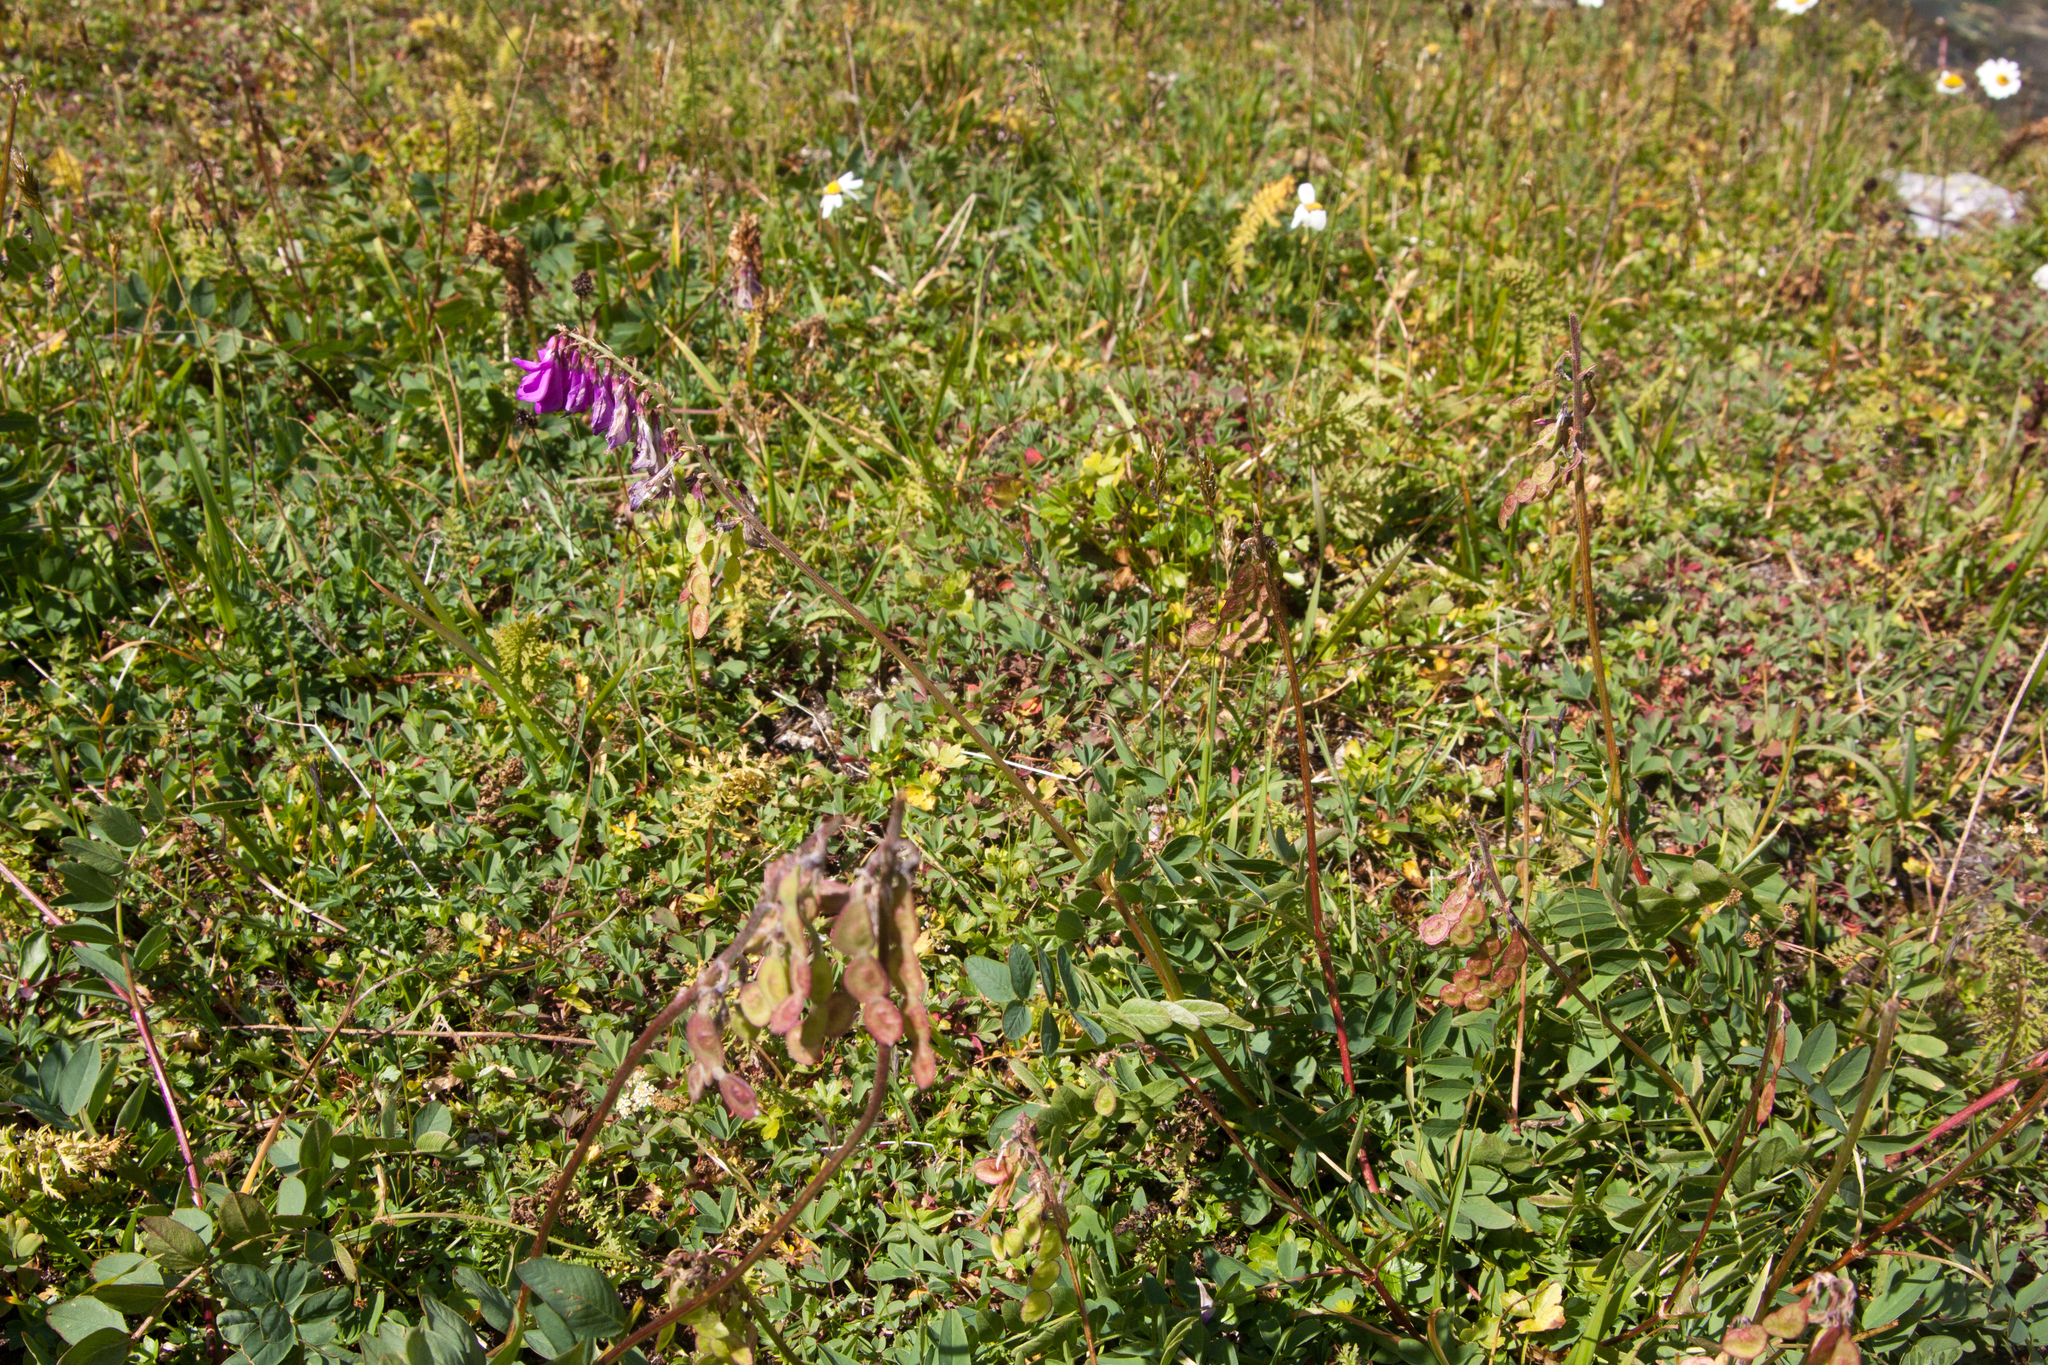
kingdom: Plantae
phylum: Tracheophyta
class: Magnoliopsida
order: Fabales
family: Fabaceae
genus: Hedysarum
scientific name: Hedysarum caucasicum
